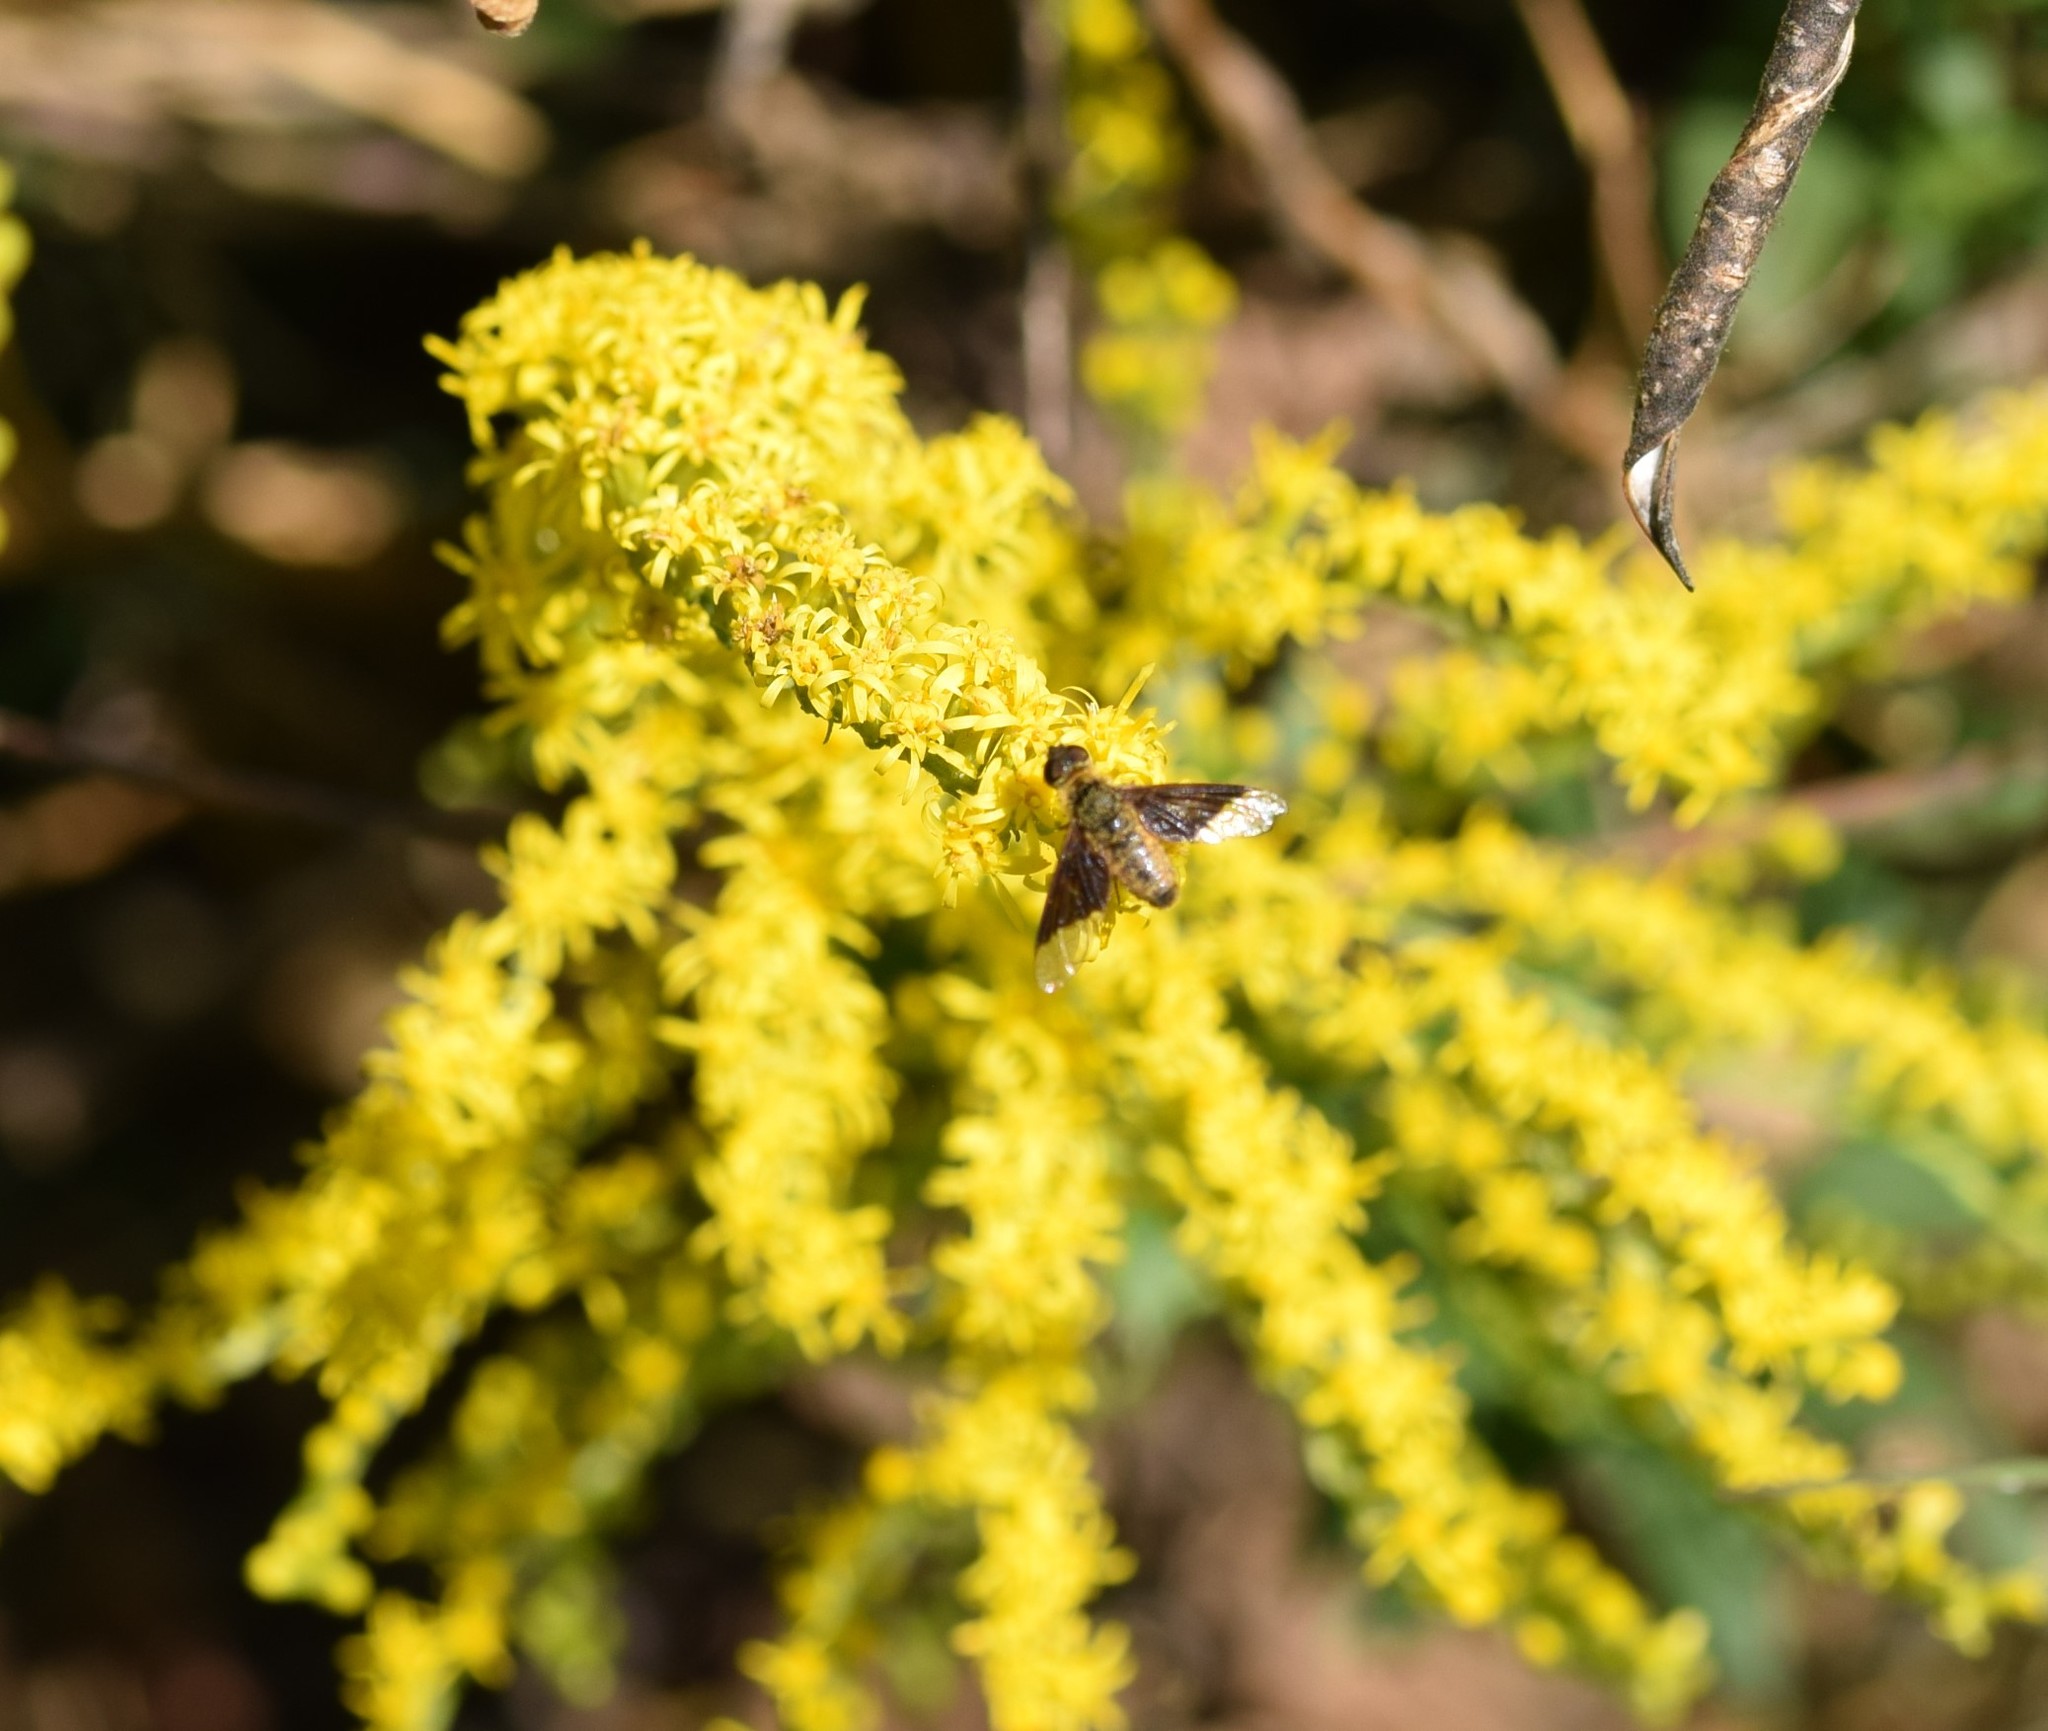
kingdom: Animalia
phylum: Arthropoda
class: Insecta
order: Diptera
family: Bombyliidae
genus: Chrysanthrax
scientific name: Chrysanthrax cypris
